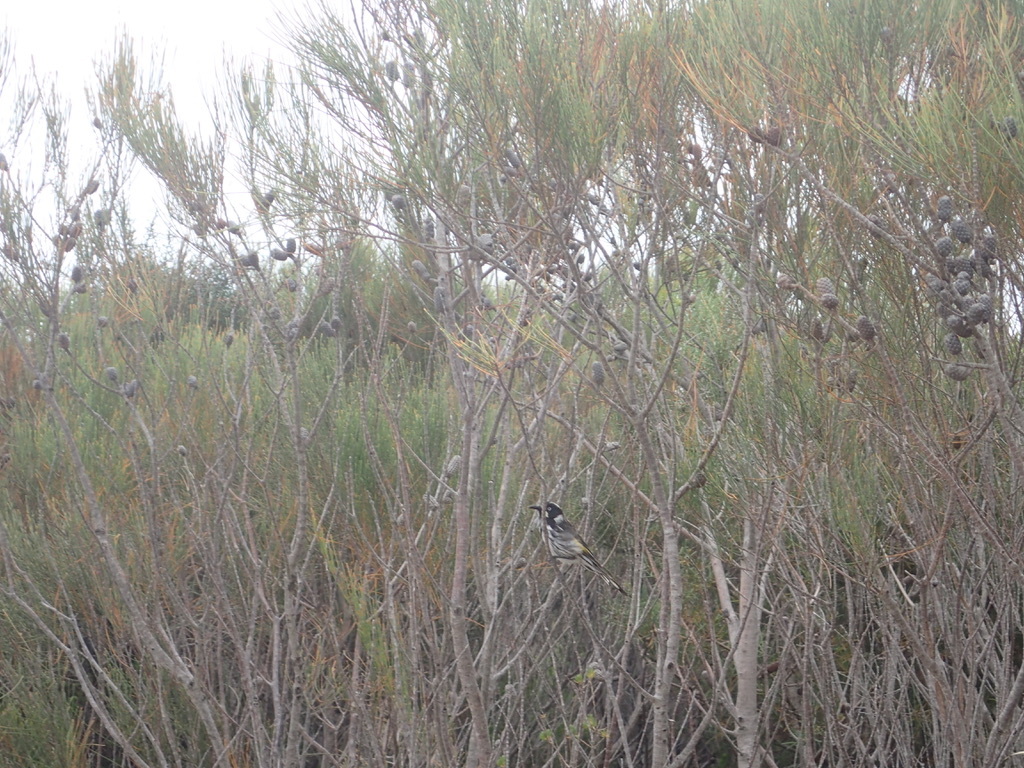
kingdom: Animalia
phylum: Chordata
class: Aves
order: Passeriformes
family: Meliphagidae
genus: Phylidonyris
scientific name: Phylidonyris novaehollandiae
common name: New holland honeyeater
